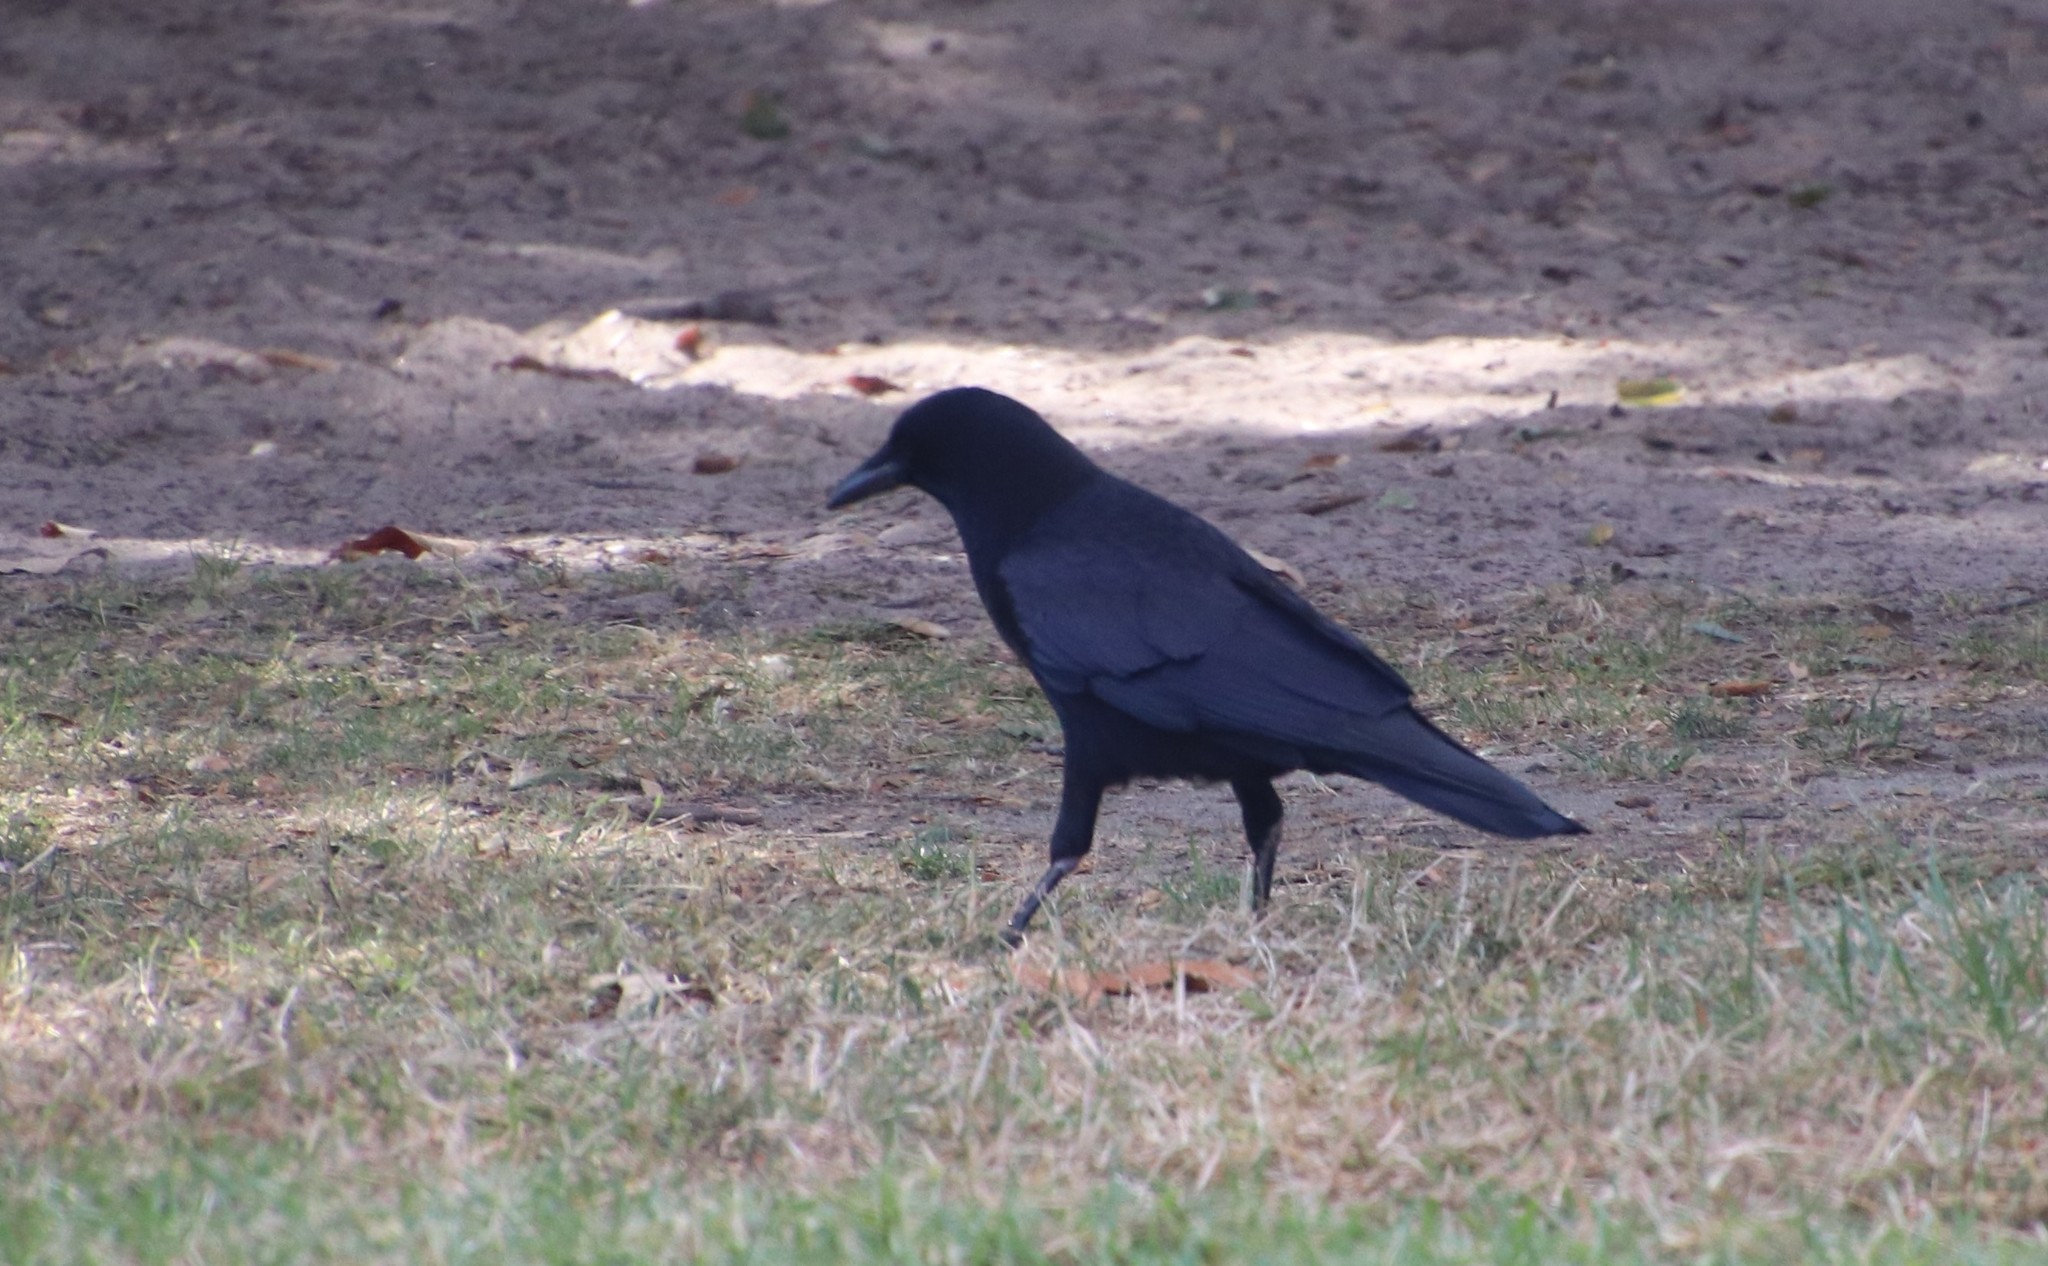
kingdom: Animalia
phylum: Chordata
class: Aves
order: Passeriformes
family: Corvidae
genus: Corvus
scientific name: Corvus brachyrhynchos
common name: American crow
